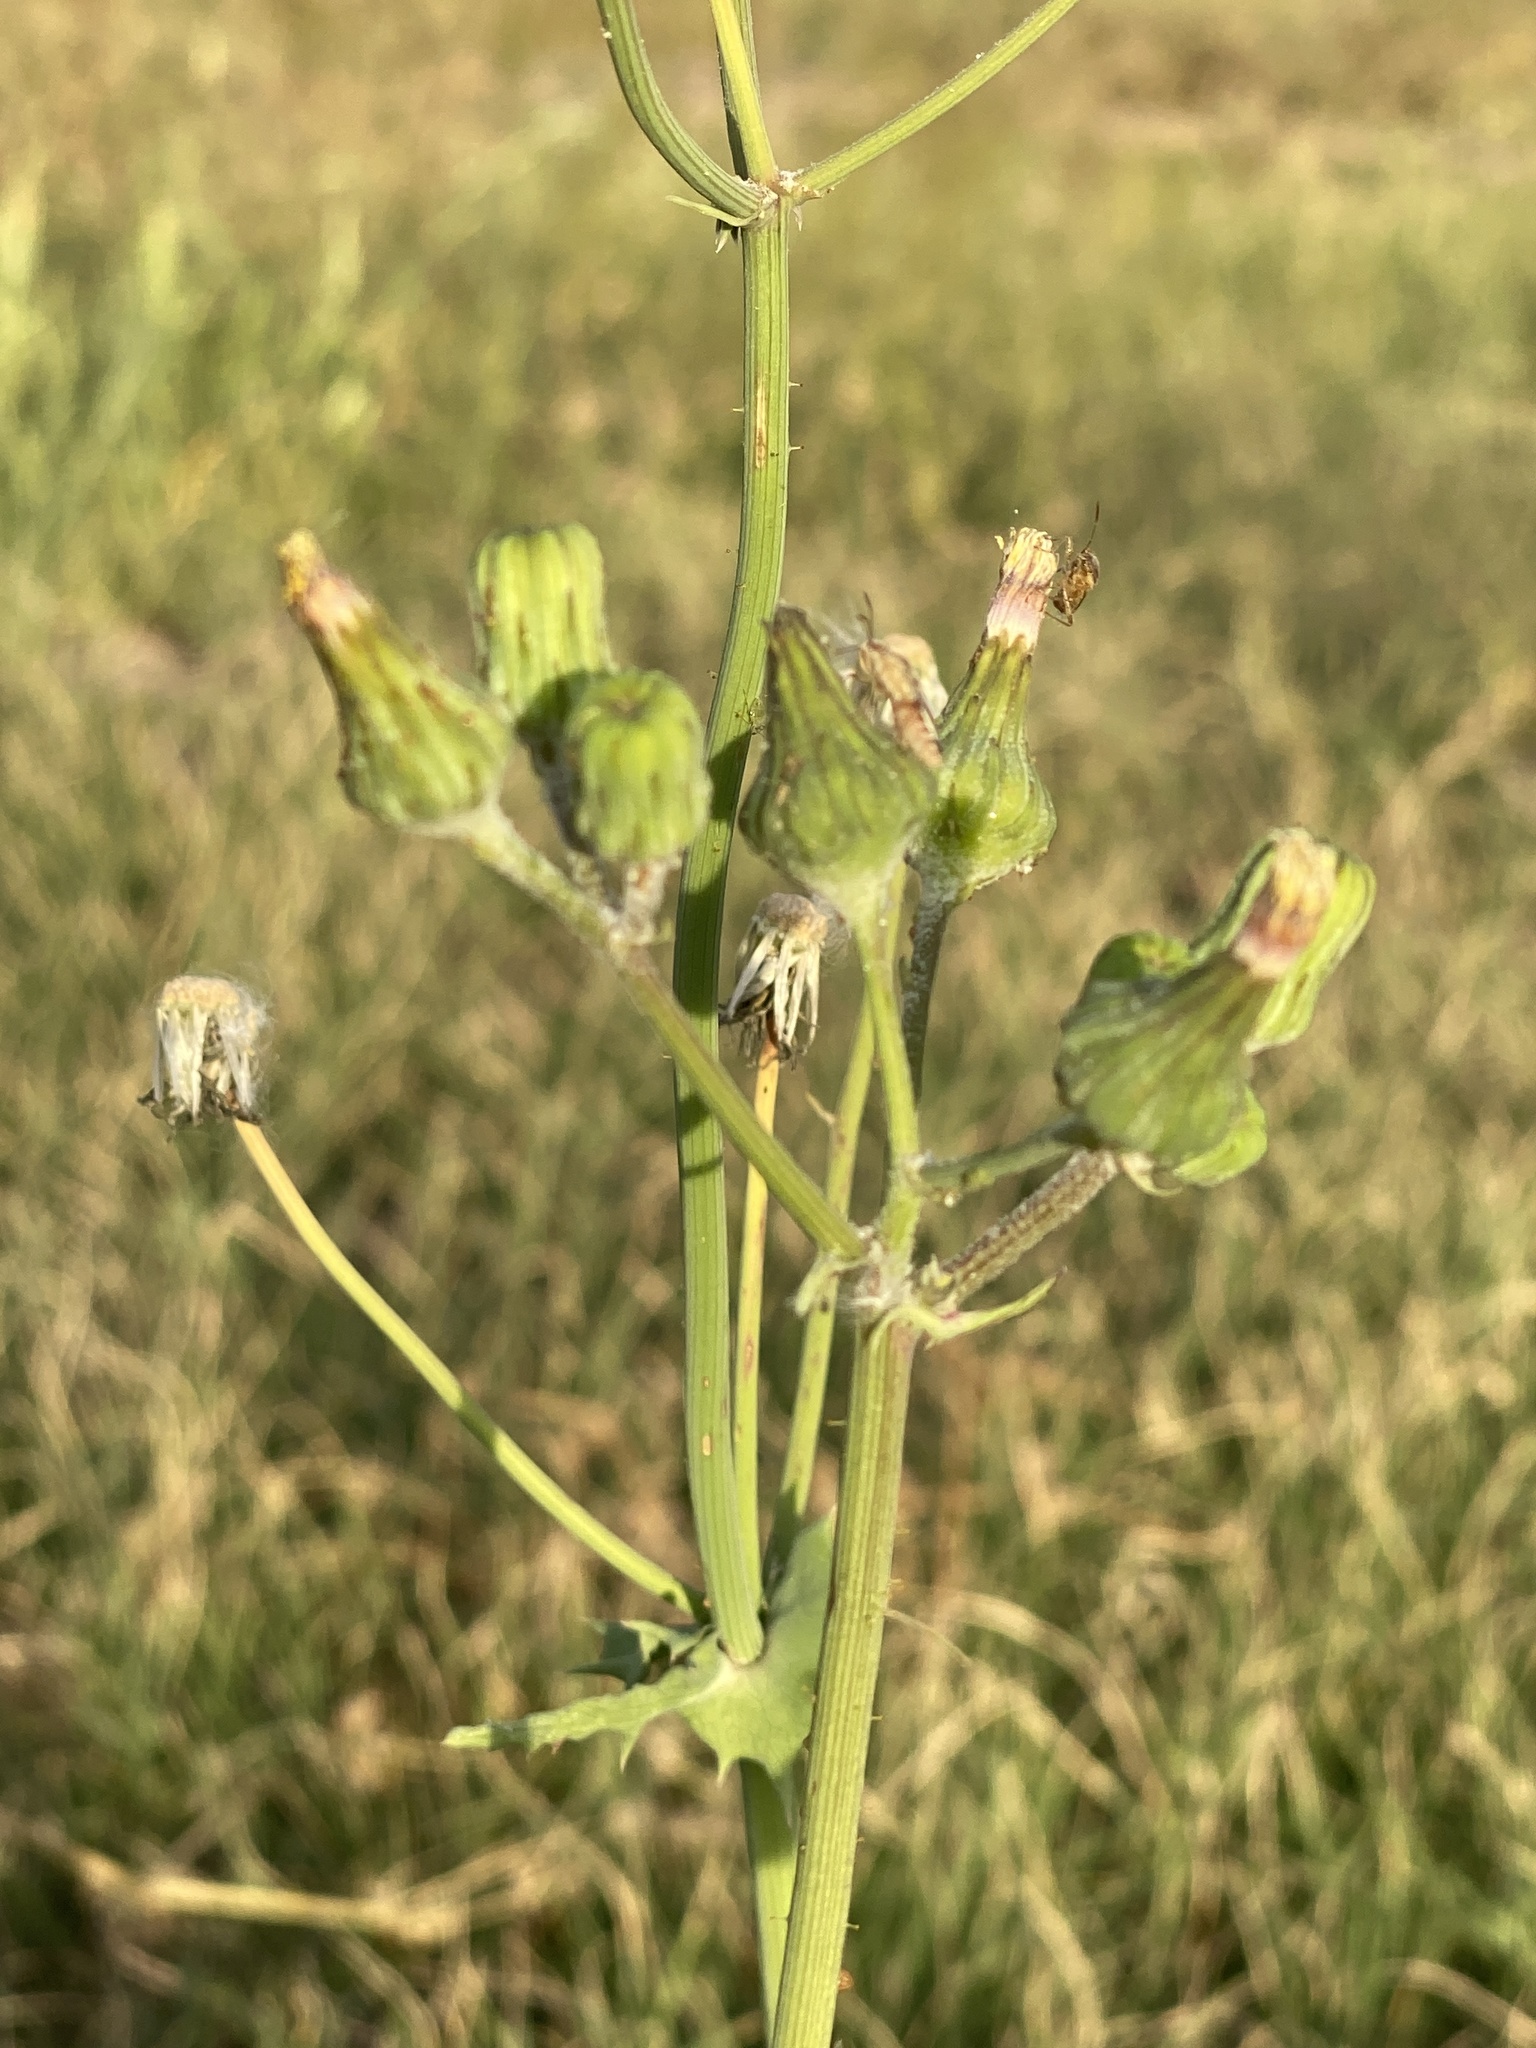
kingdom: Plantae
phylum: Tracheophyta
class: Magnoliopsida
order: Asterales
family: Asteraceae
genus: Sonchus
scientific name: Sonchus oleraceus
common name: Common sowthistle
